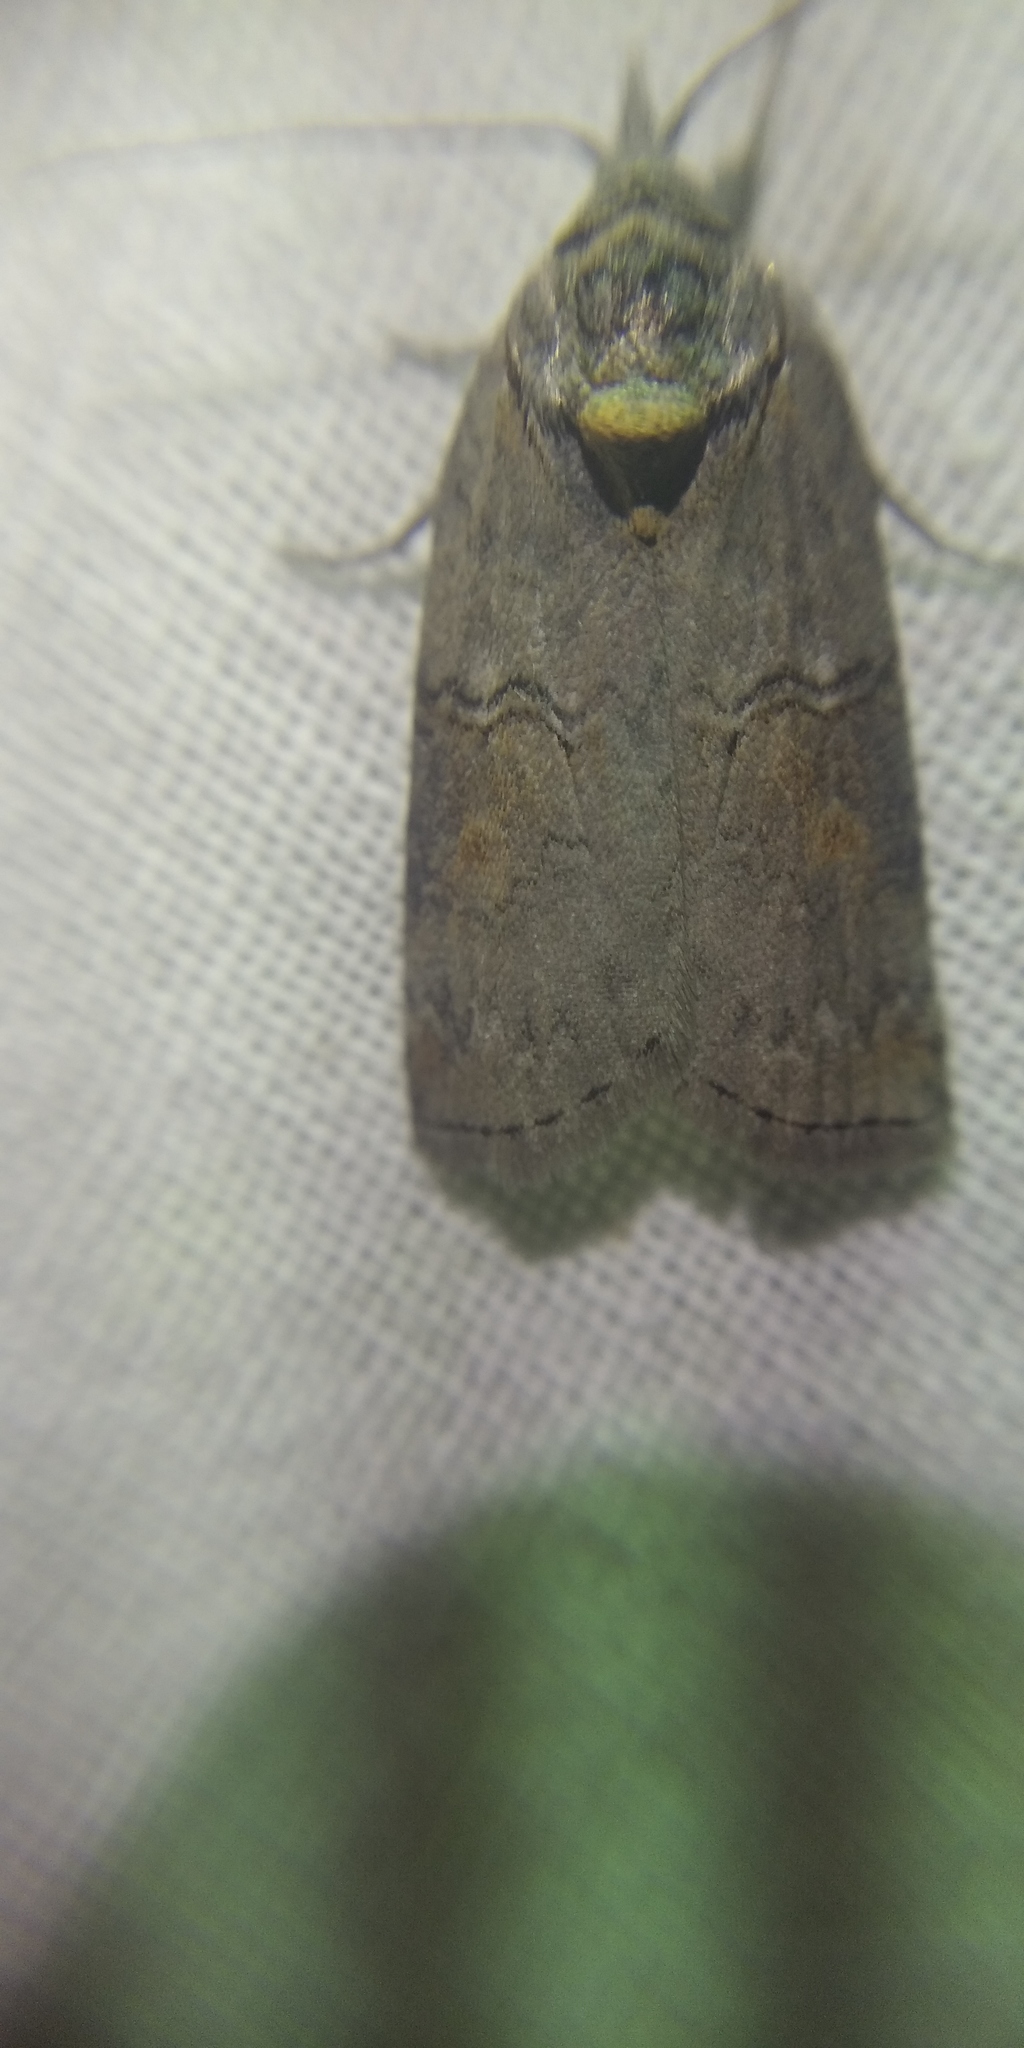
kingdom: Animalia
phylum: Arthropoda
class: Insecta
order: Lepidoptera
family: Nolidae
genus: Nycteola
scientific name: Nycteola asiatica
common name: Eastern nycteoline
